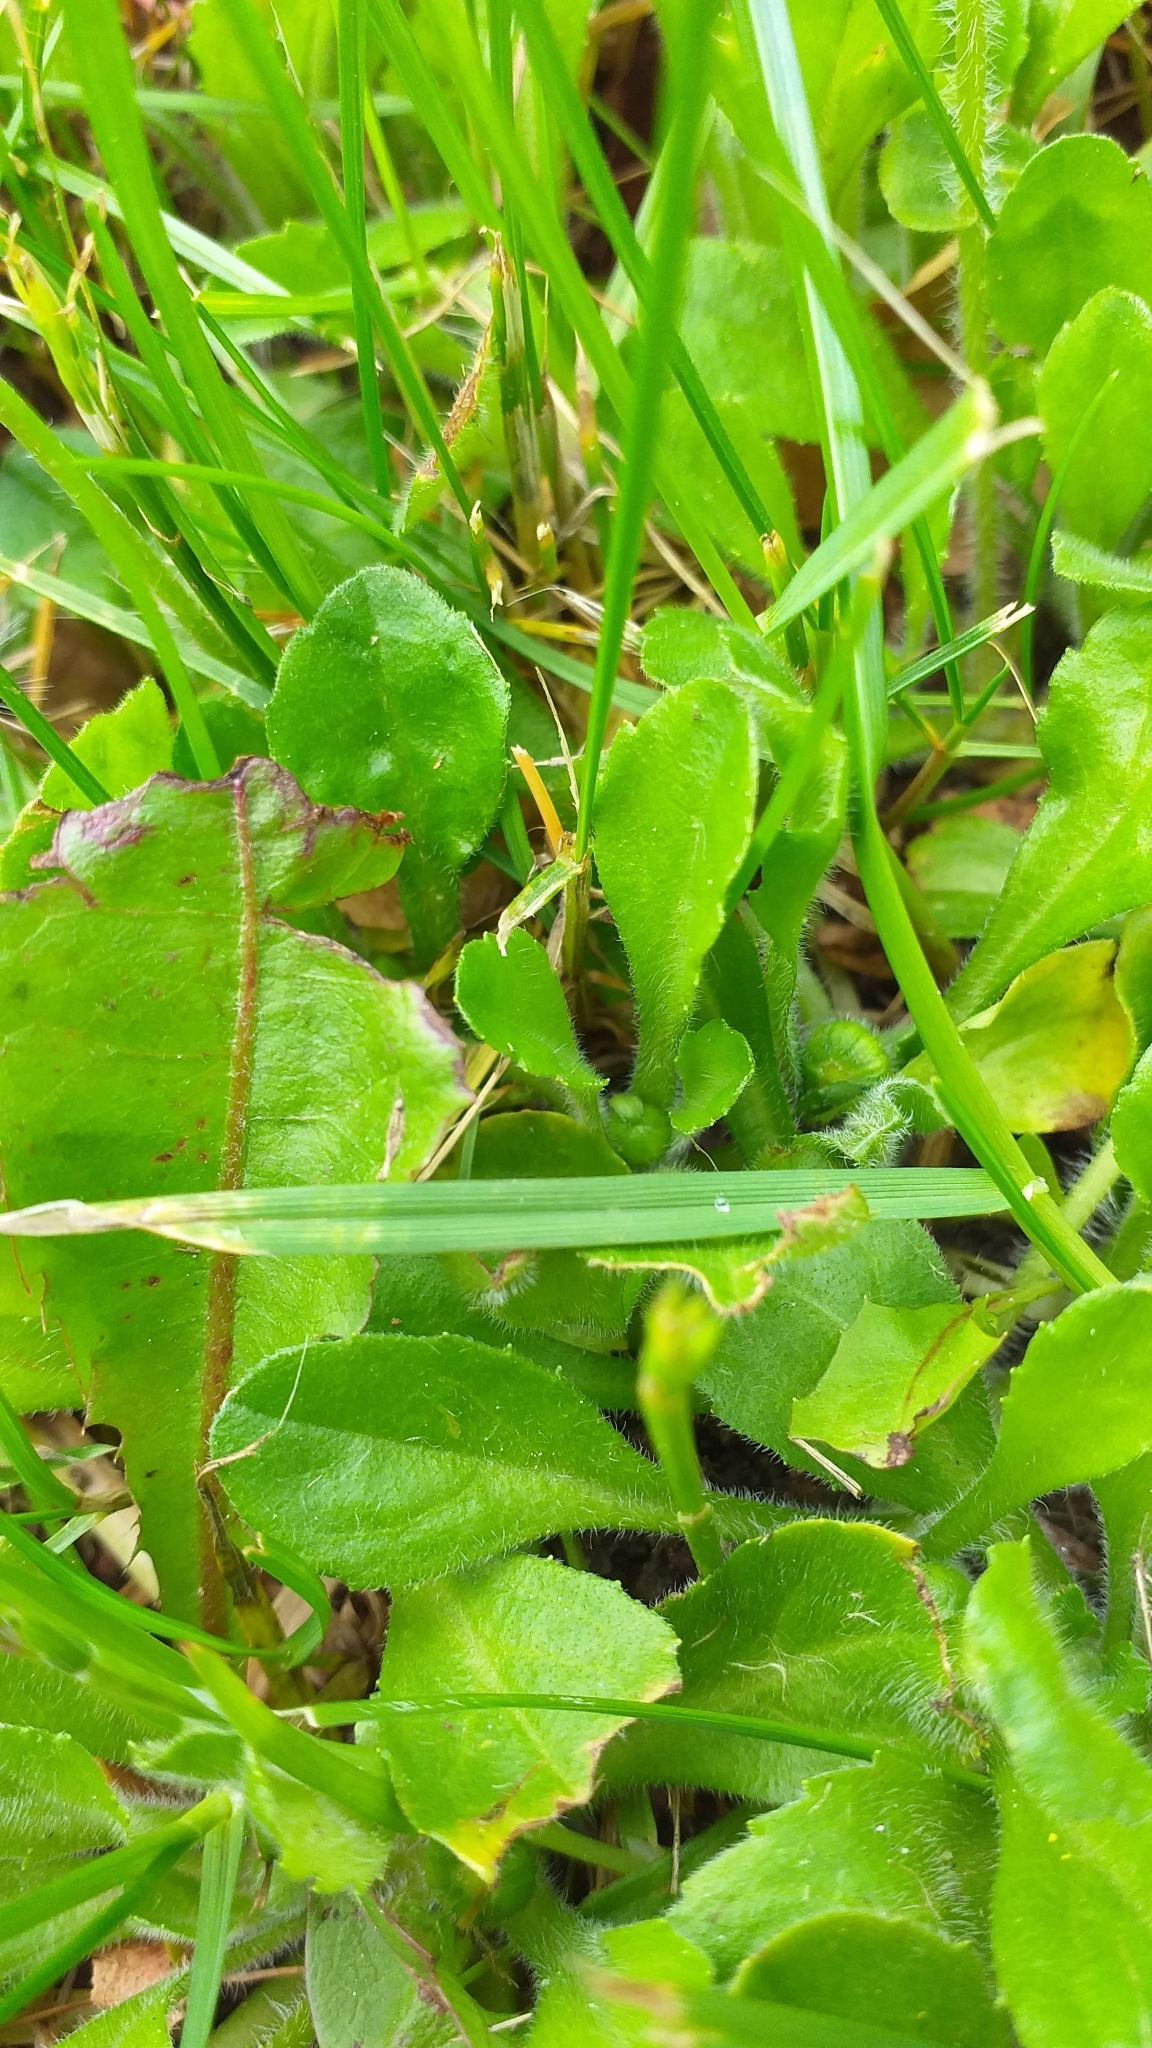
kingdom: Plantae
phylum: Tracheophyta
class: Magnoliopsida
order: Asterales
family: Asteraceae
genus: Bellis
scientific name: Bellis perennis
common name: Lawndaisy
